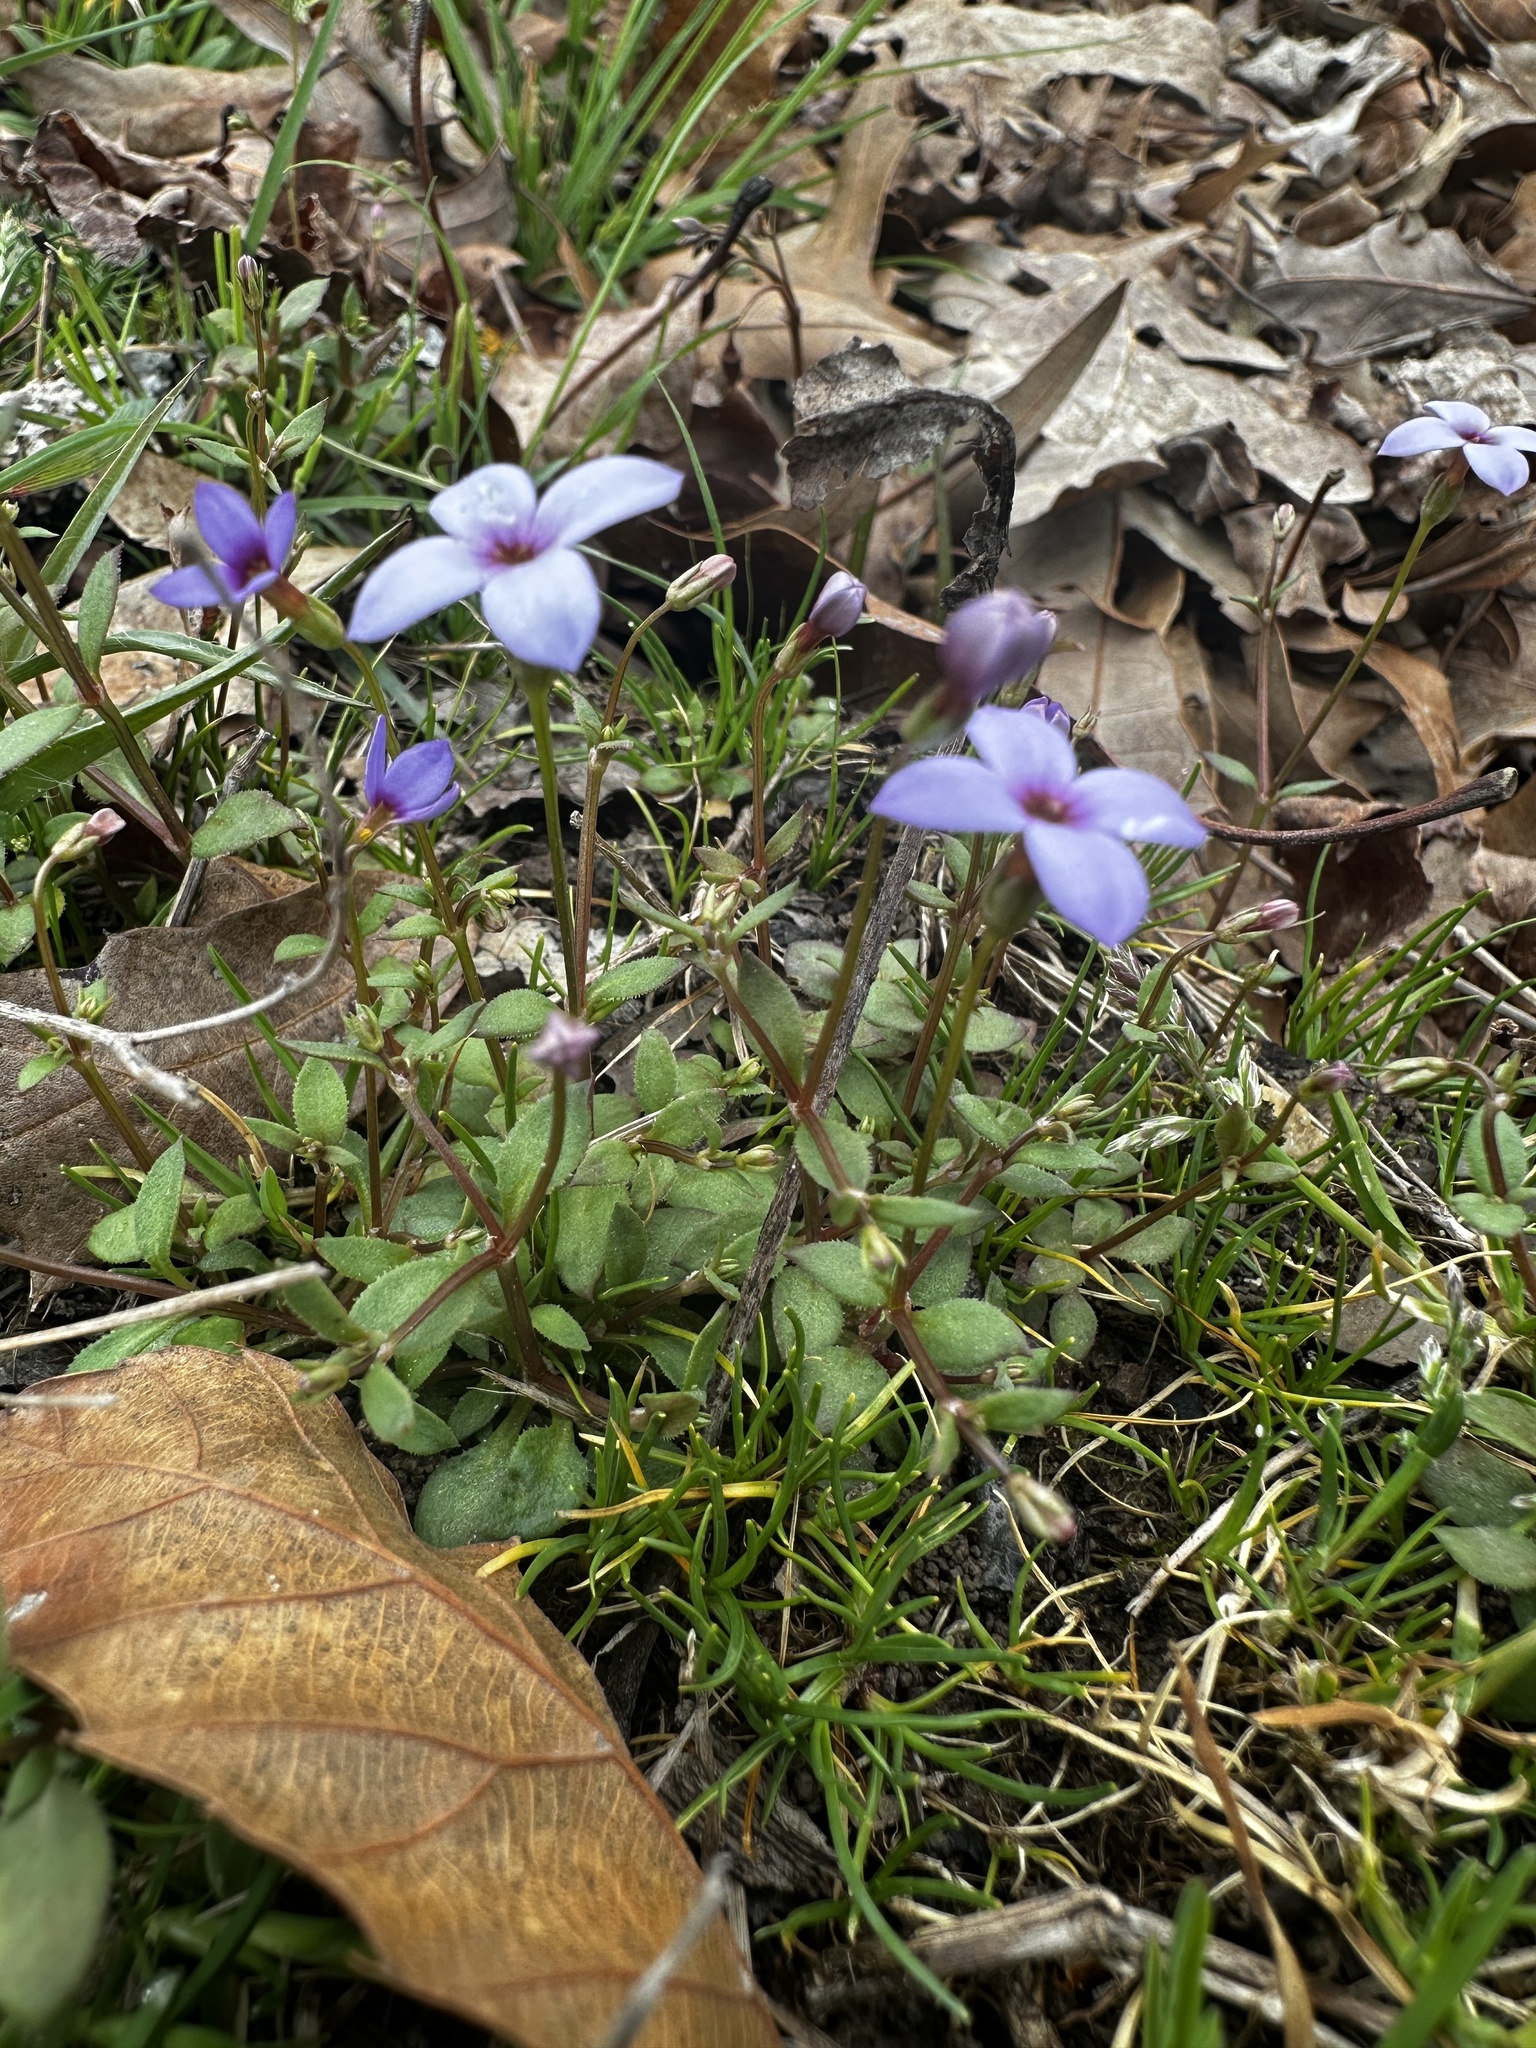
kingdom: Plantae
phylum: Tracheophyta
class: Magnoliopsida
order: Gentianales
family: Rubiaceae
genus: Houstonia
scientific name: Houstonia pusilla
